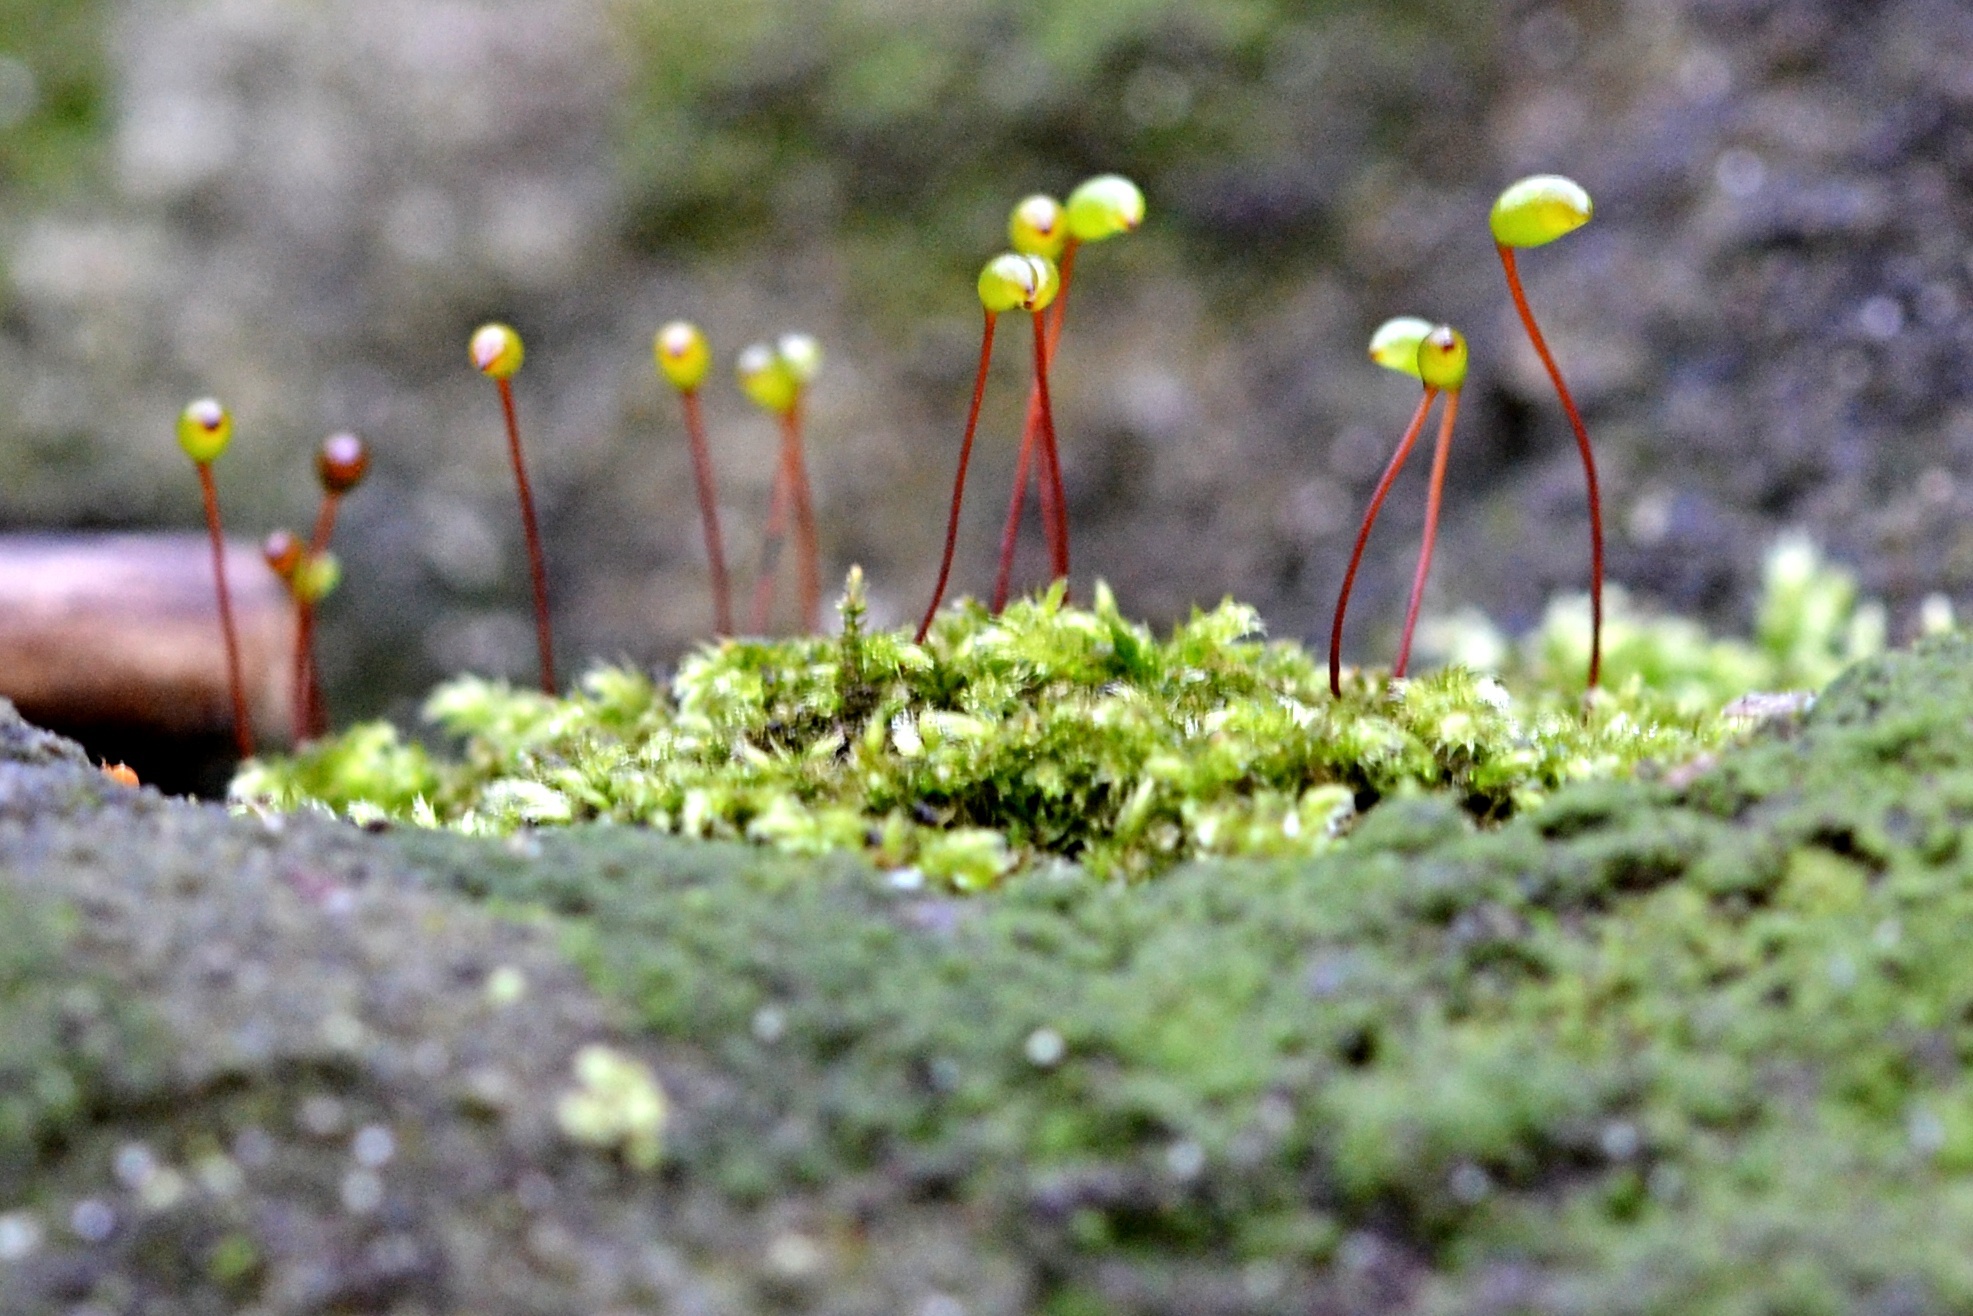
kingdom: Plantae
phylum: Bryophyta
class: Bryopsida
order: Hypnales
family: Brachytheciaceae
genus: Brachytheciastrum
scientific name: Brachytheciastrum velutinum
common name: Velvet feather-moss
